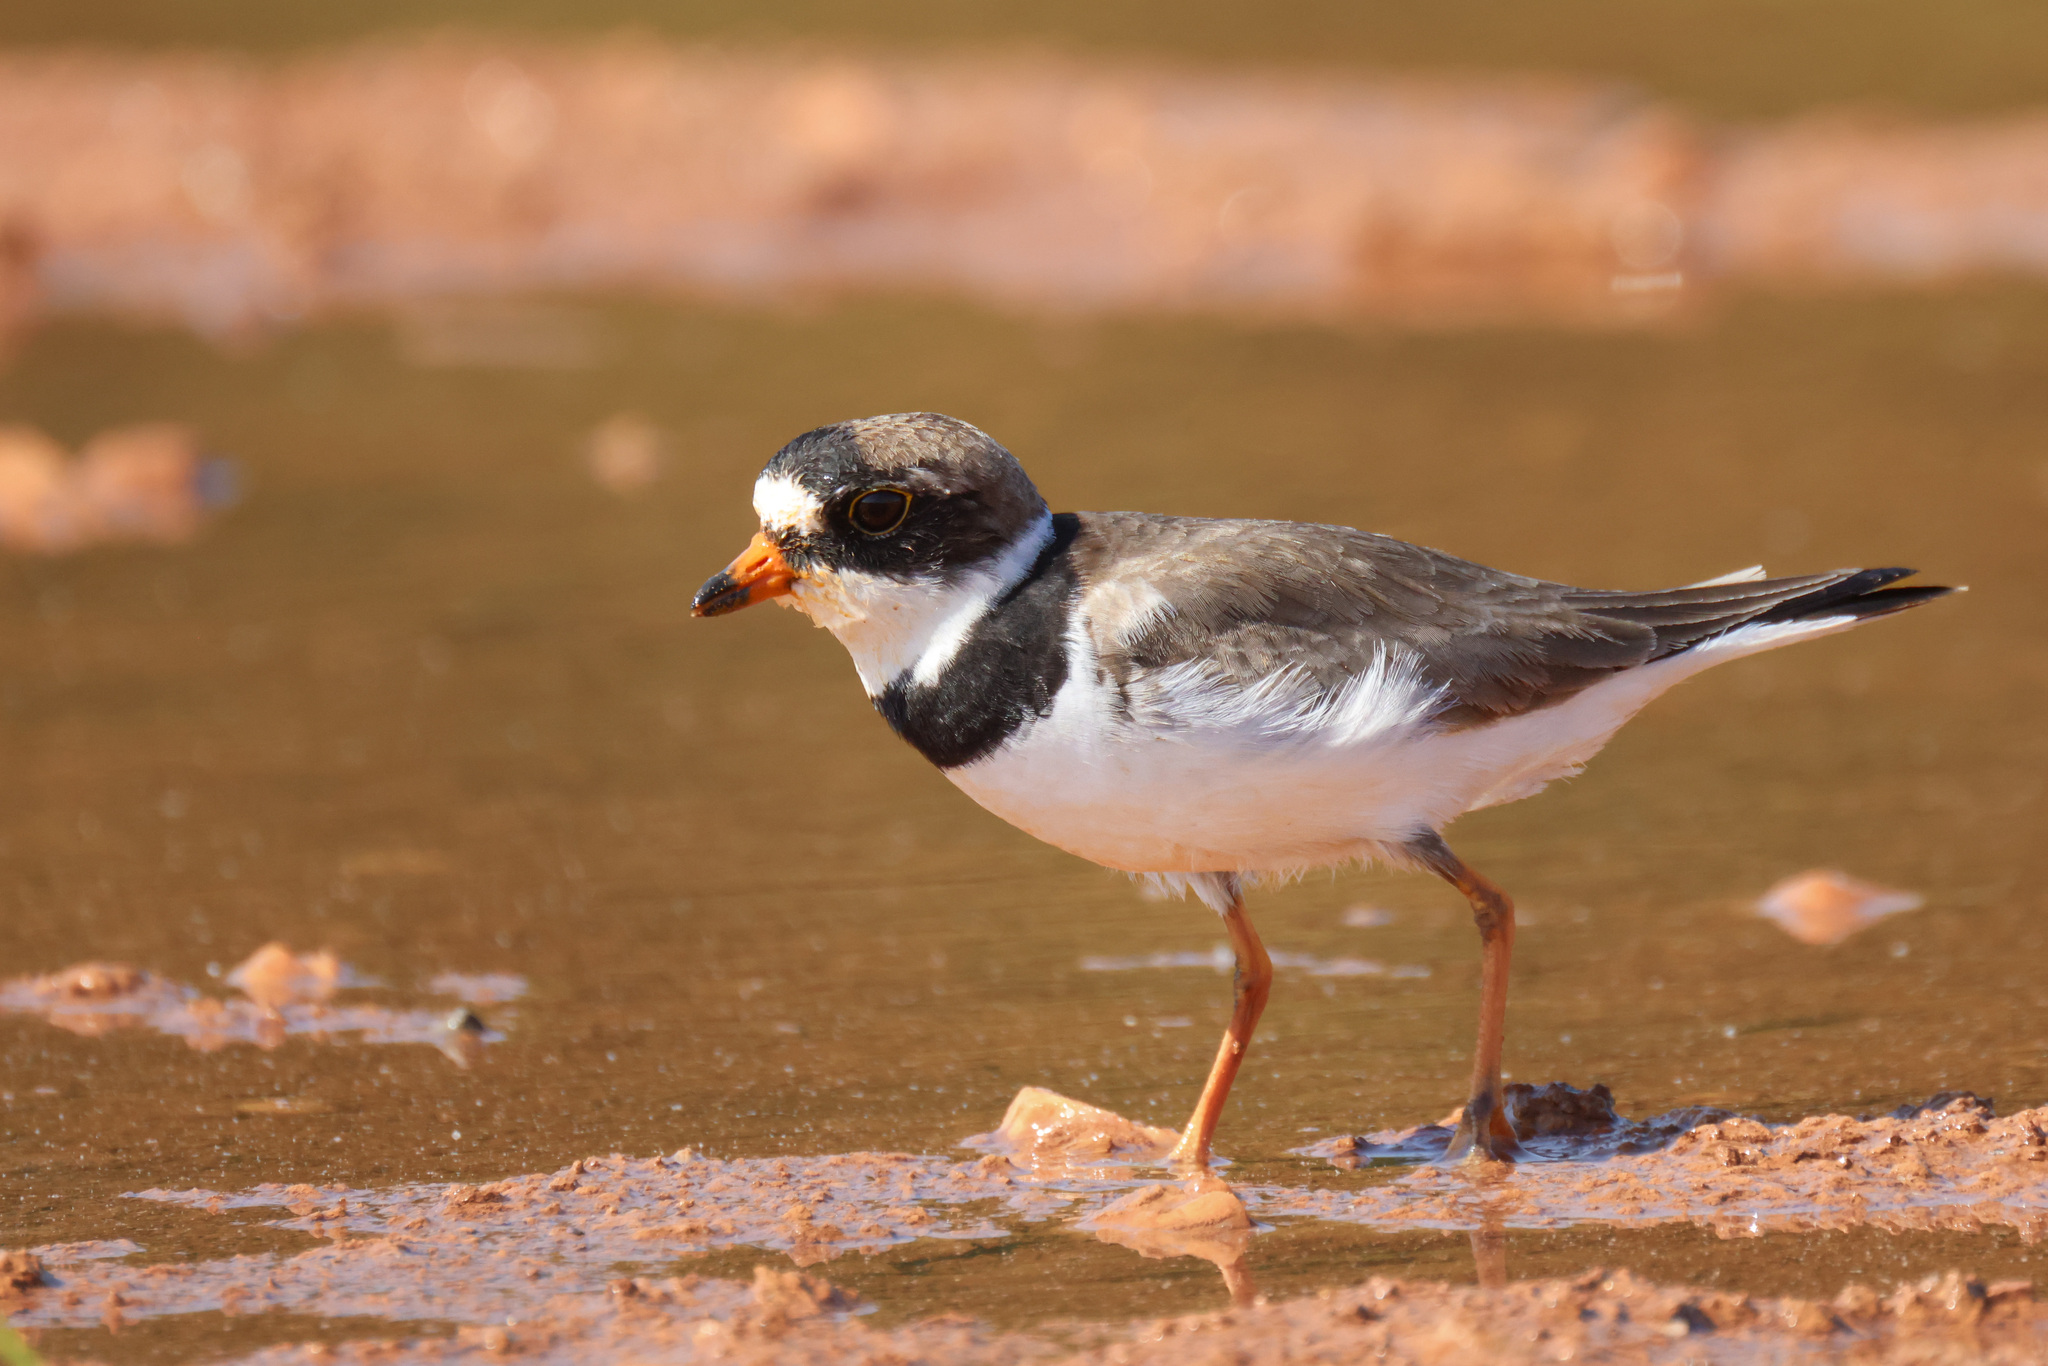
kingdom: Animalia
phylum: Chordata
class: Aves
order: Charadriiformes
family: Charadriidae
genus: Charadrius
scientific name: Charadrius semipalmatus
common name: Semipalmated plover
